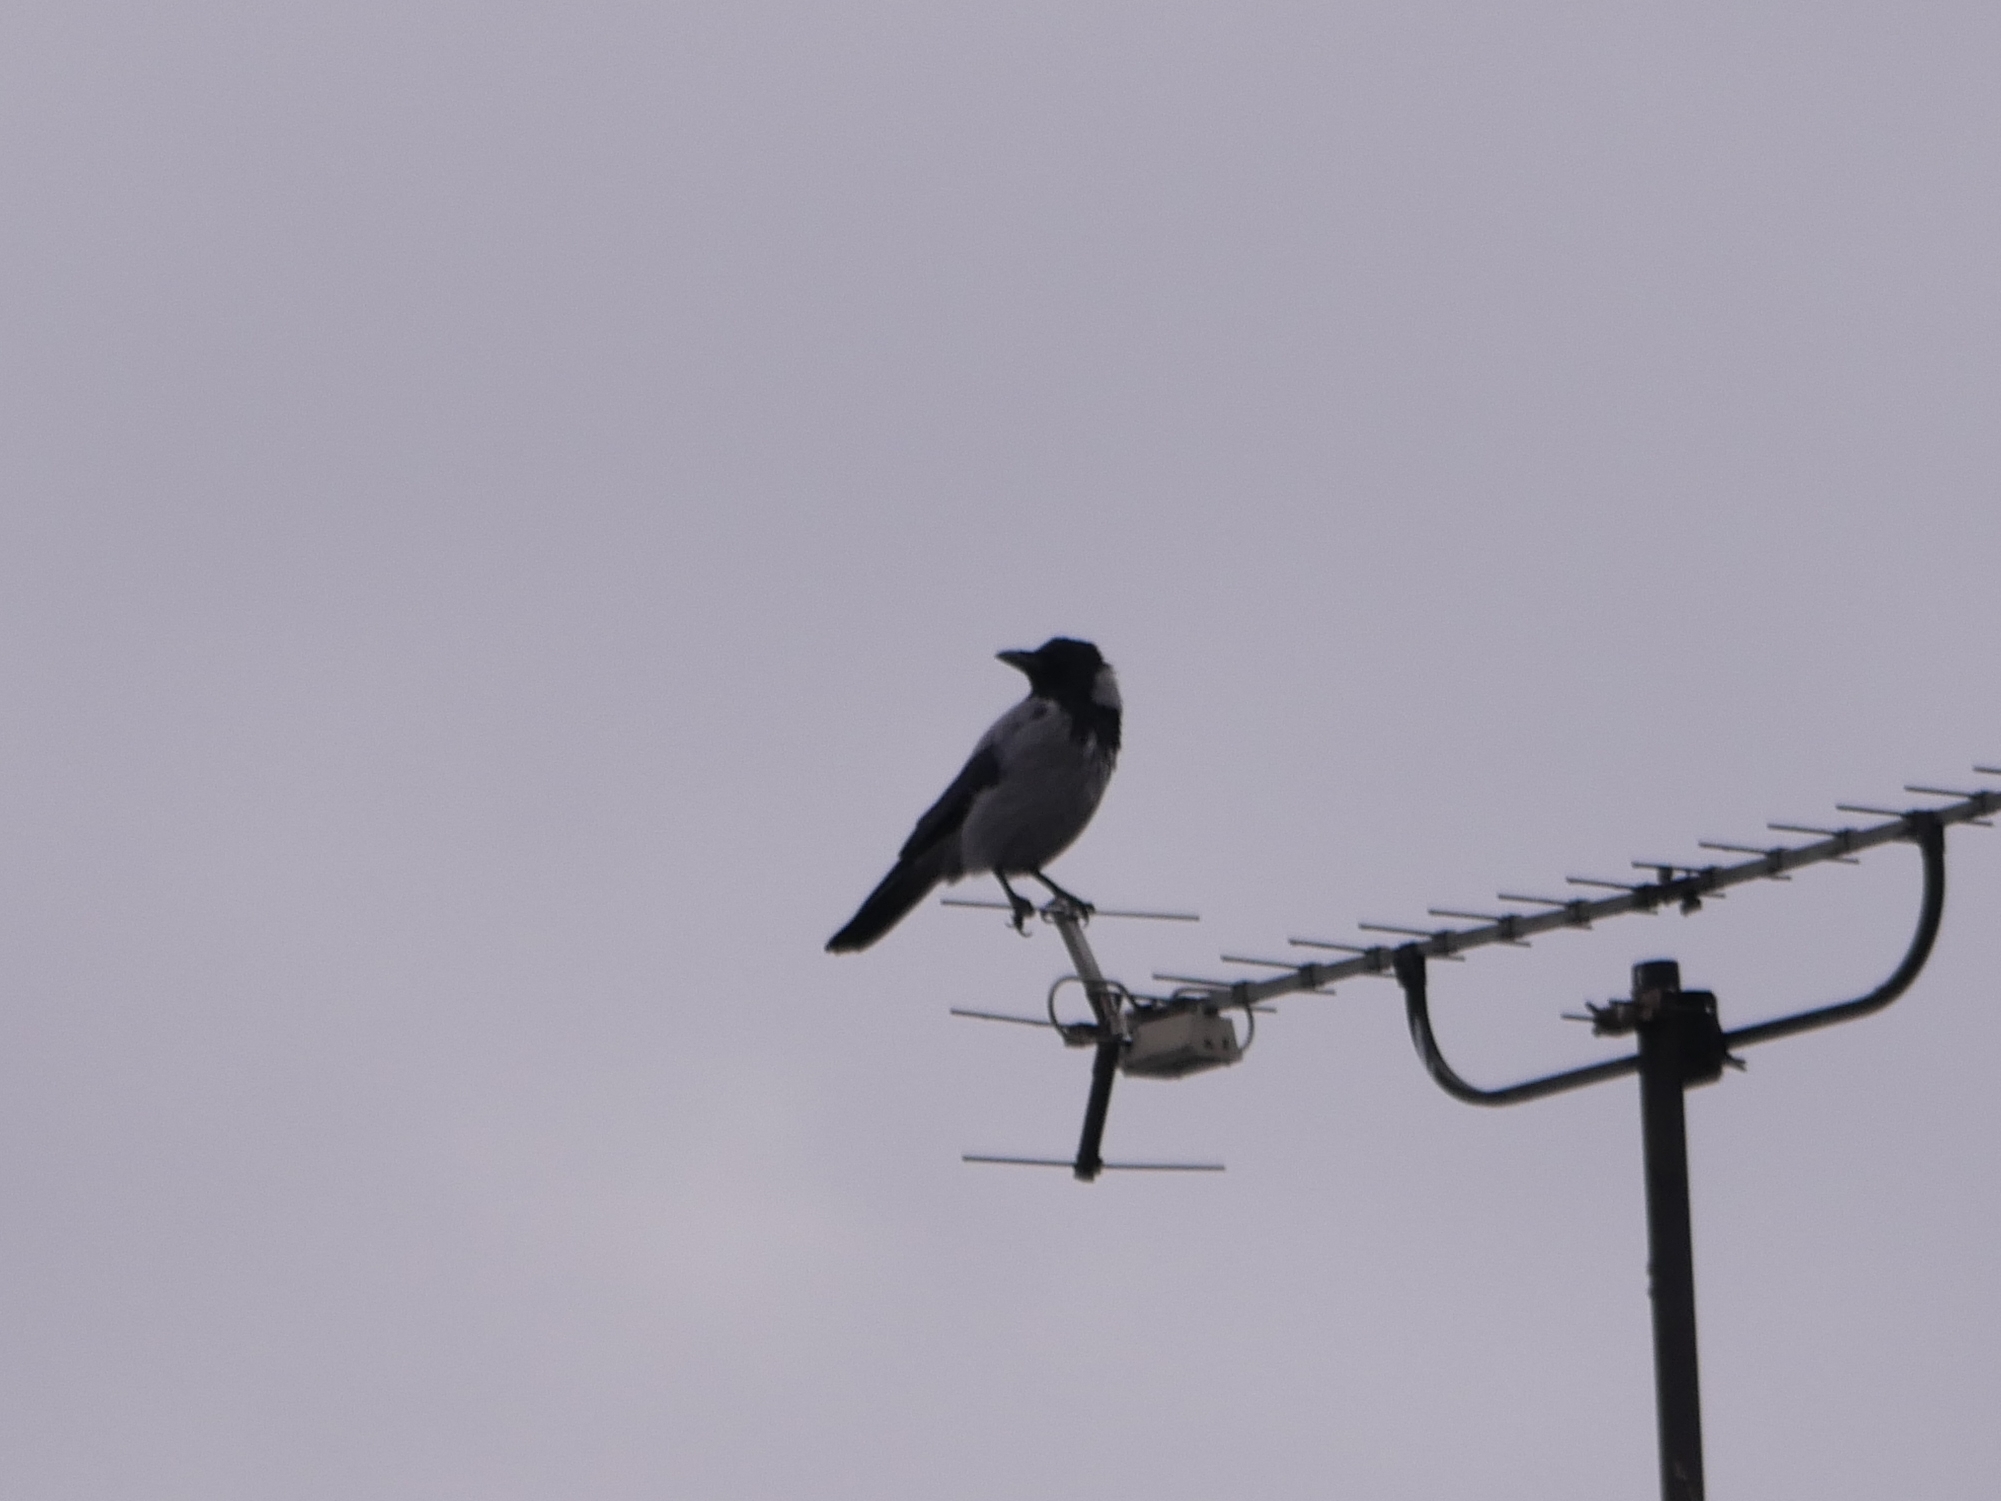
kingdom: Animalia
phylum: Chordata
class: Aves
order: Passeriformes
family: Corvidae
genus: Corvus
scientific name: Corvus cornix
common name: Hooded crow
